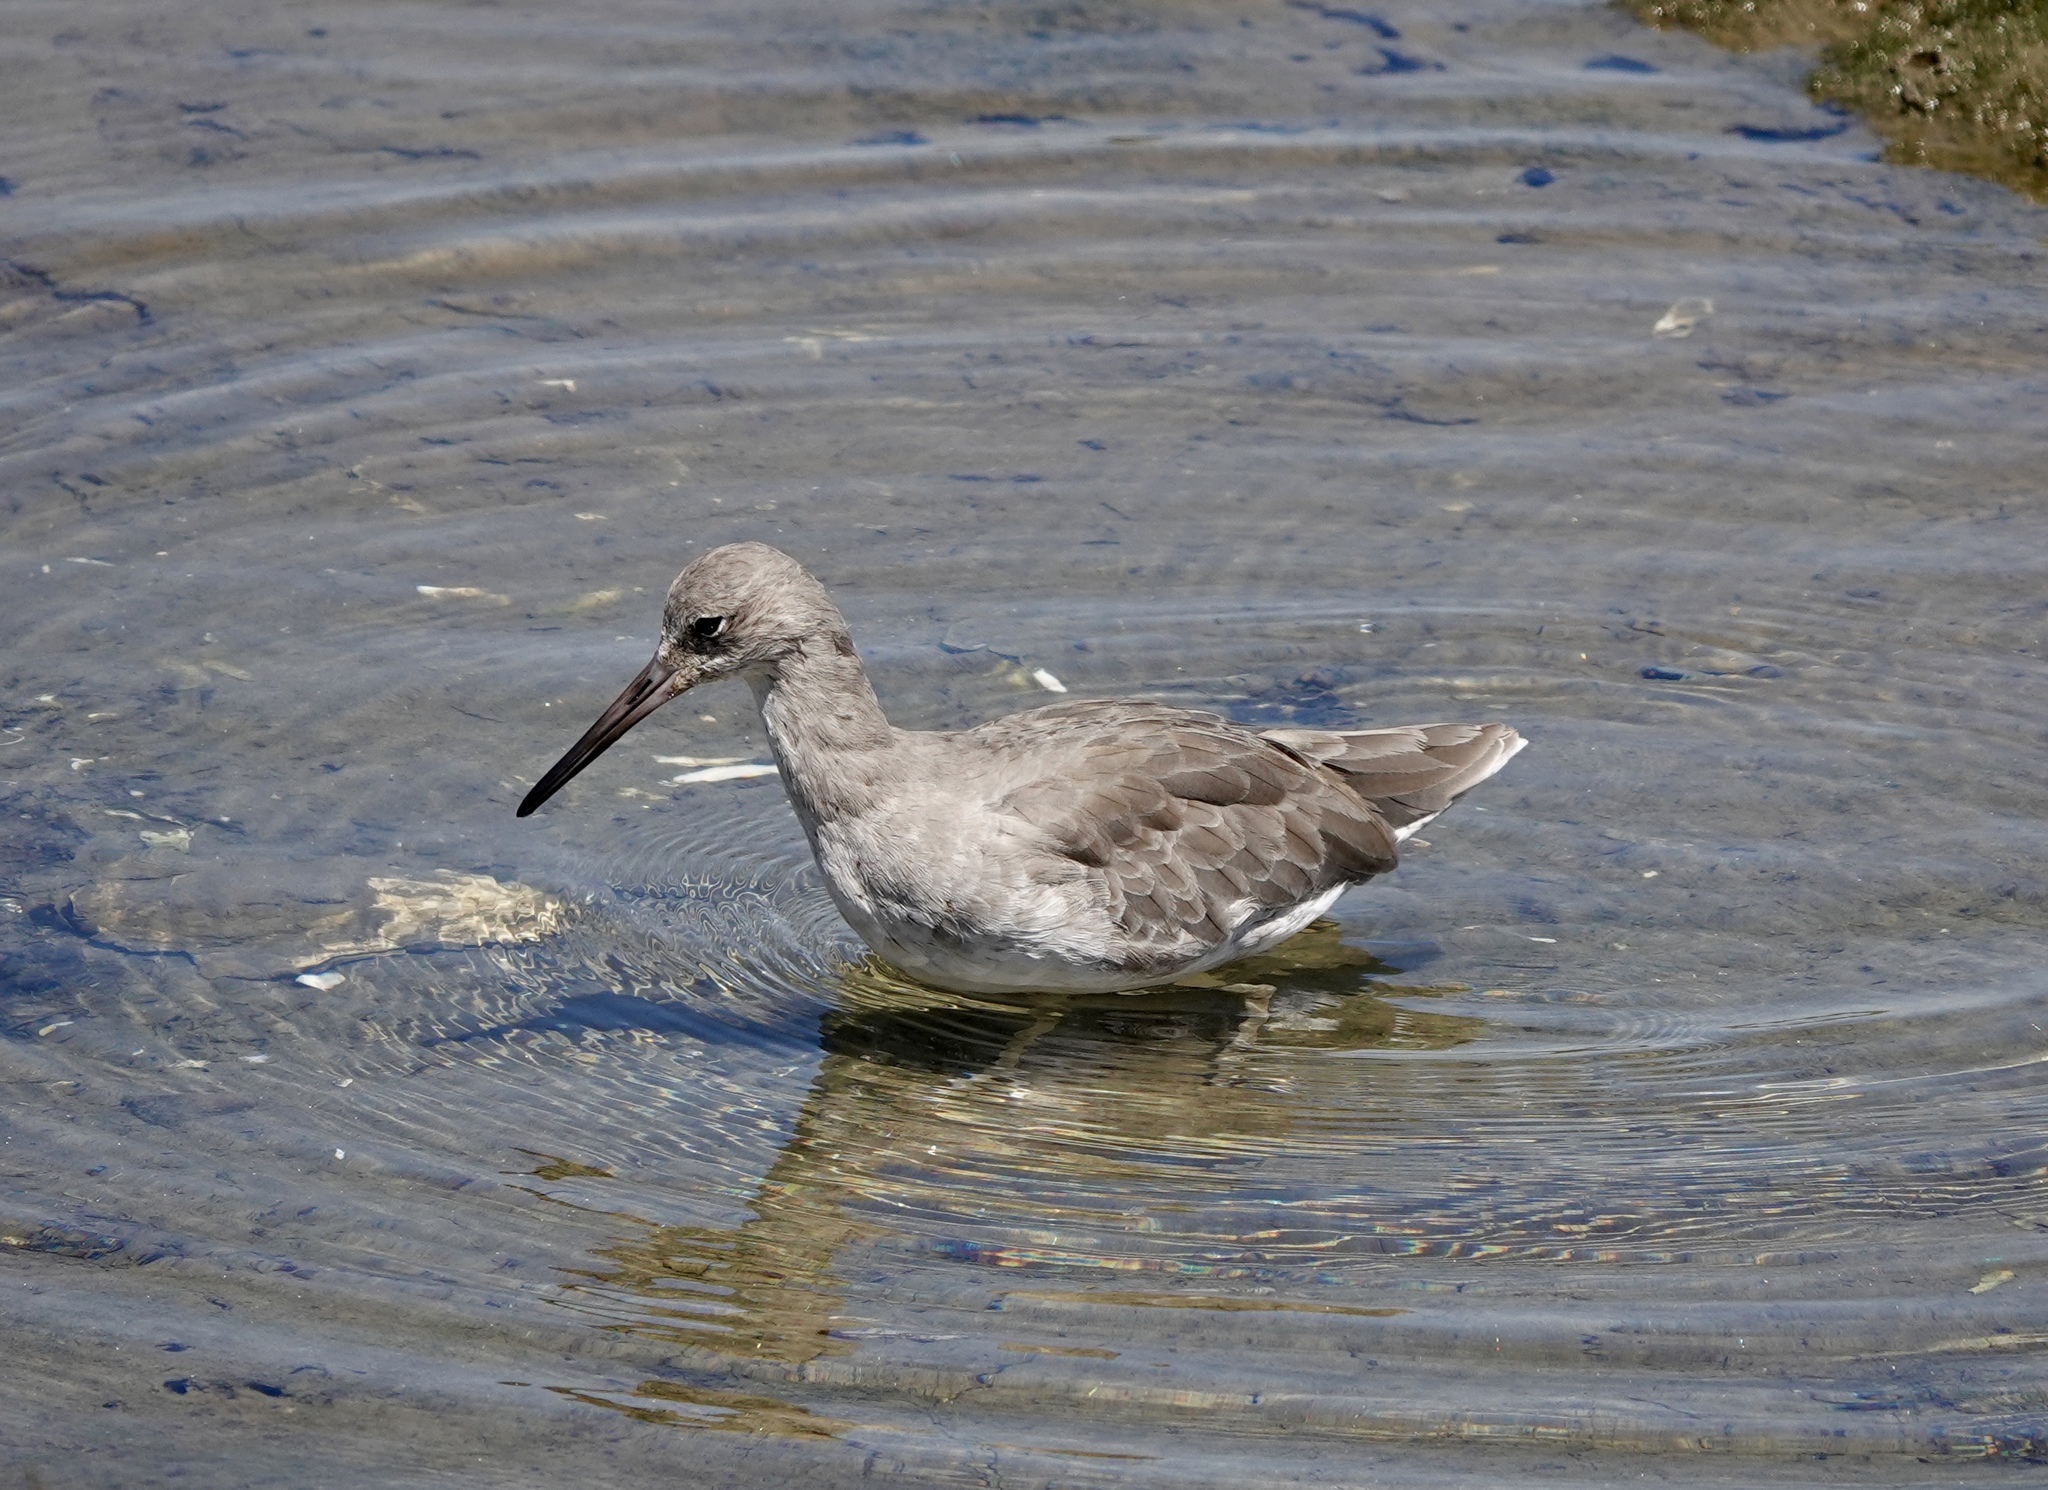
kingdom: Animalia
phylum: Chordata
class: Aves
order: Charadriiformes
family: Scolopacidae
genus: Tringa
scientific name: Tringa semipalmata
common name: Willet
